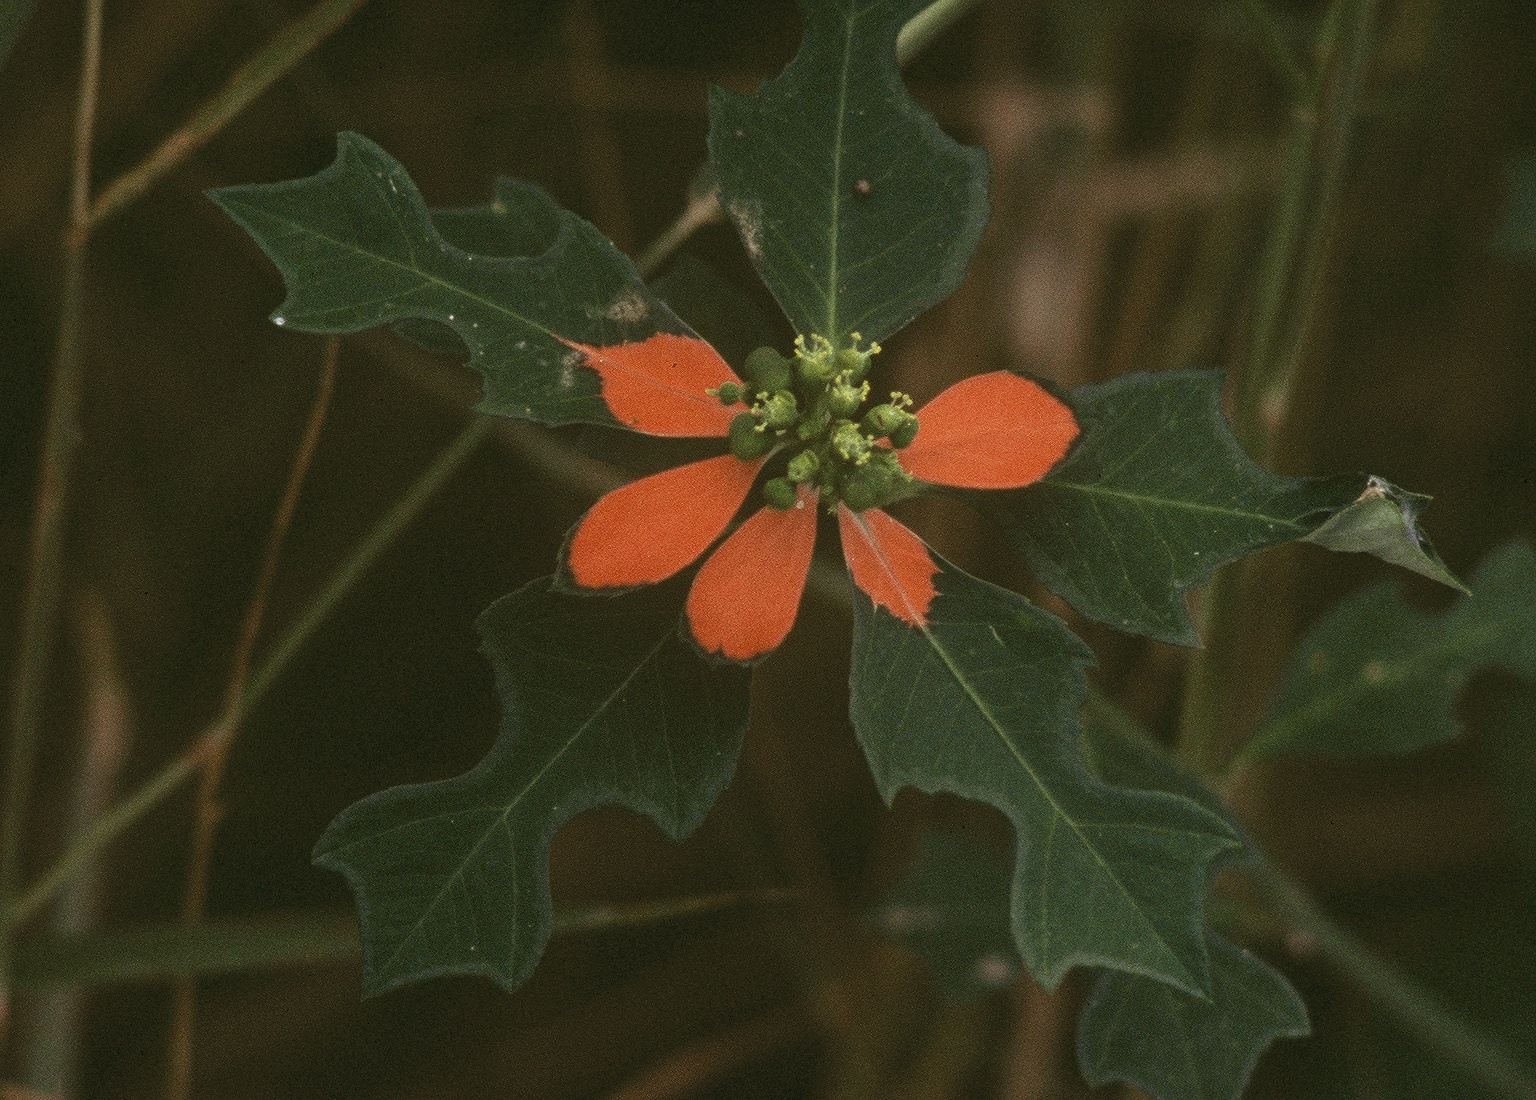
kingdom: Plantae
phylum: Tracheophyta
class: Magnoliopsida
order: Malpighiales
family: Euphorbiaceae
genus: Euphorbia
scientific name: Euphorbia heterophylla
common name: Mexican fireplant
